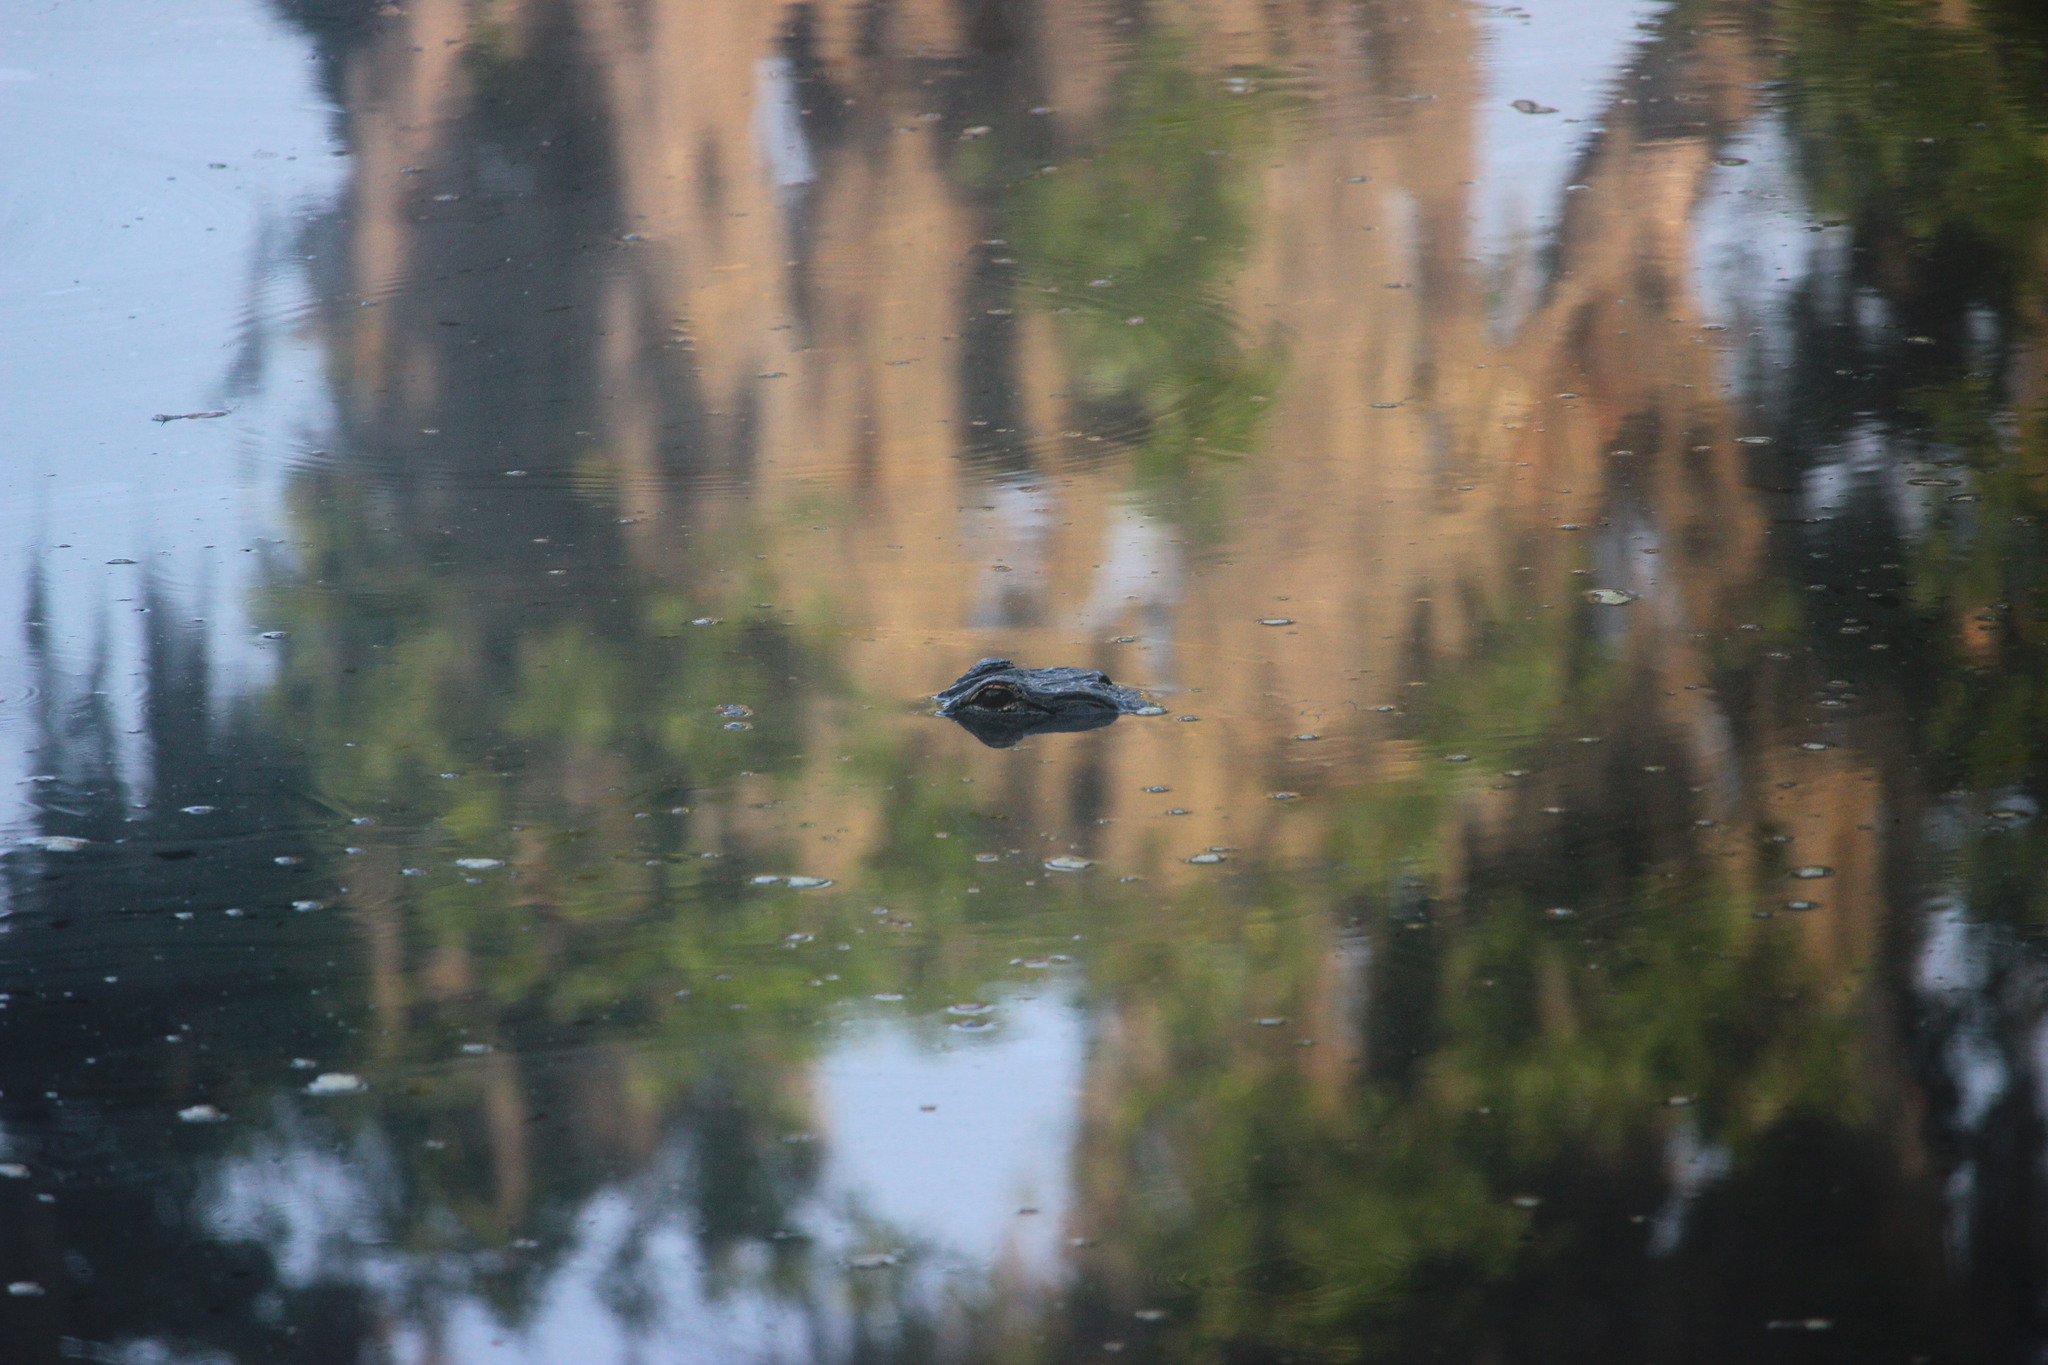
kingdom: Animalia
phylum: Chordata
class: Crocodylia
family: Alligatoridae
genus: Alligator
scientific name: Alligator mississippiensis
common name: American alligator
